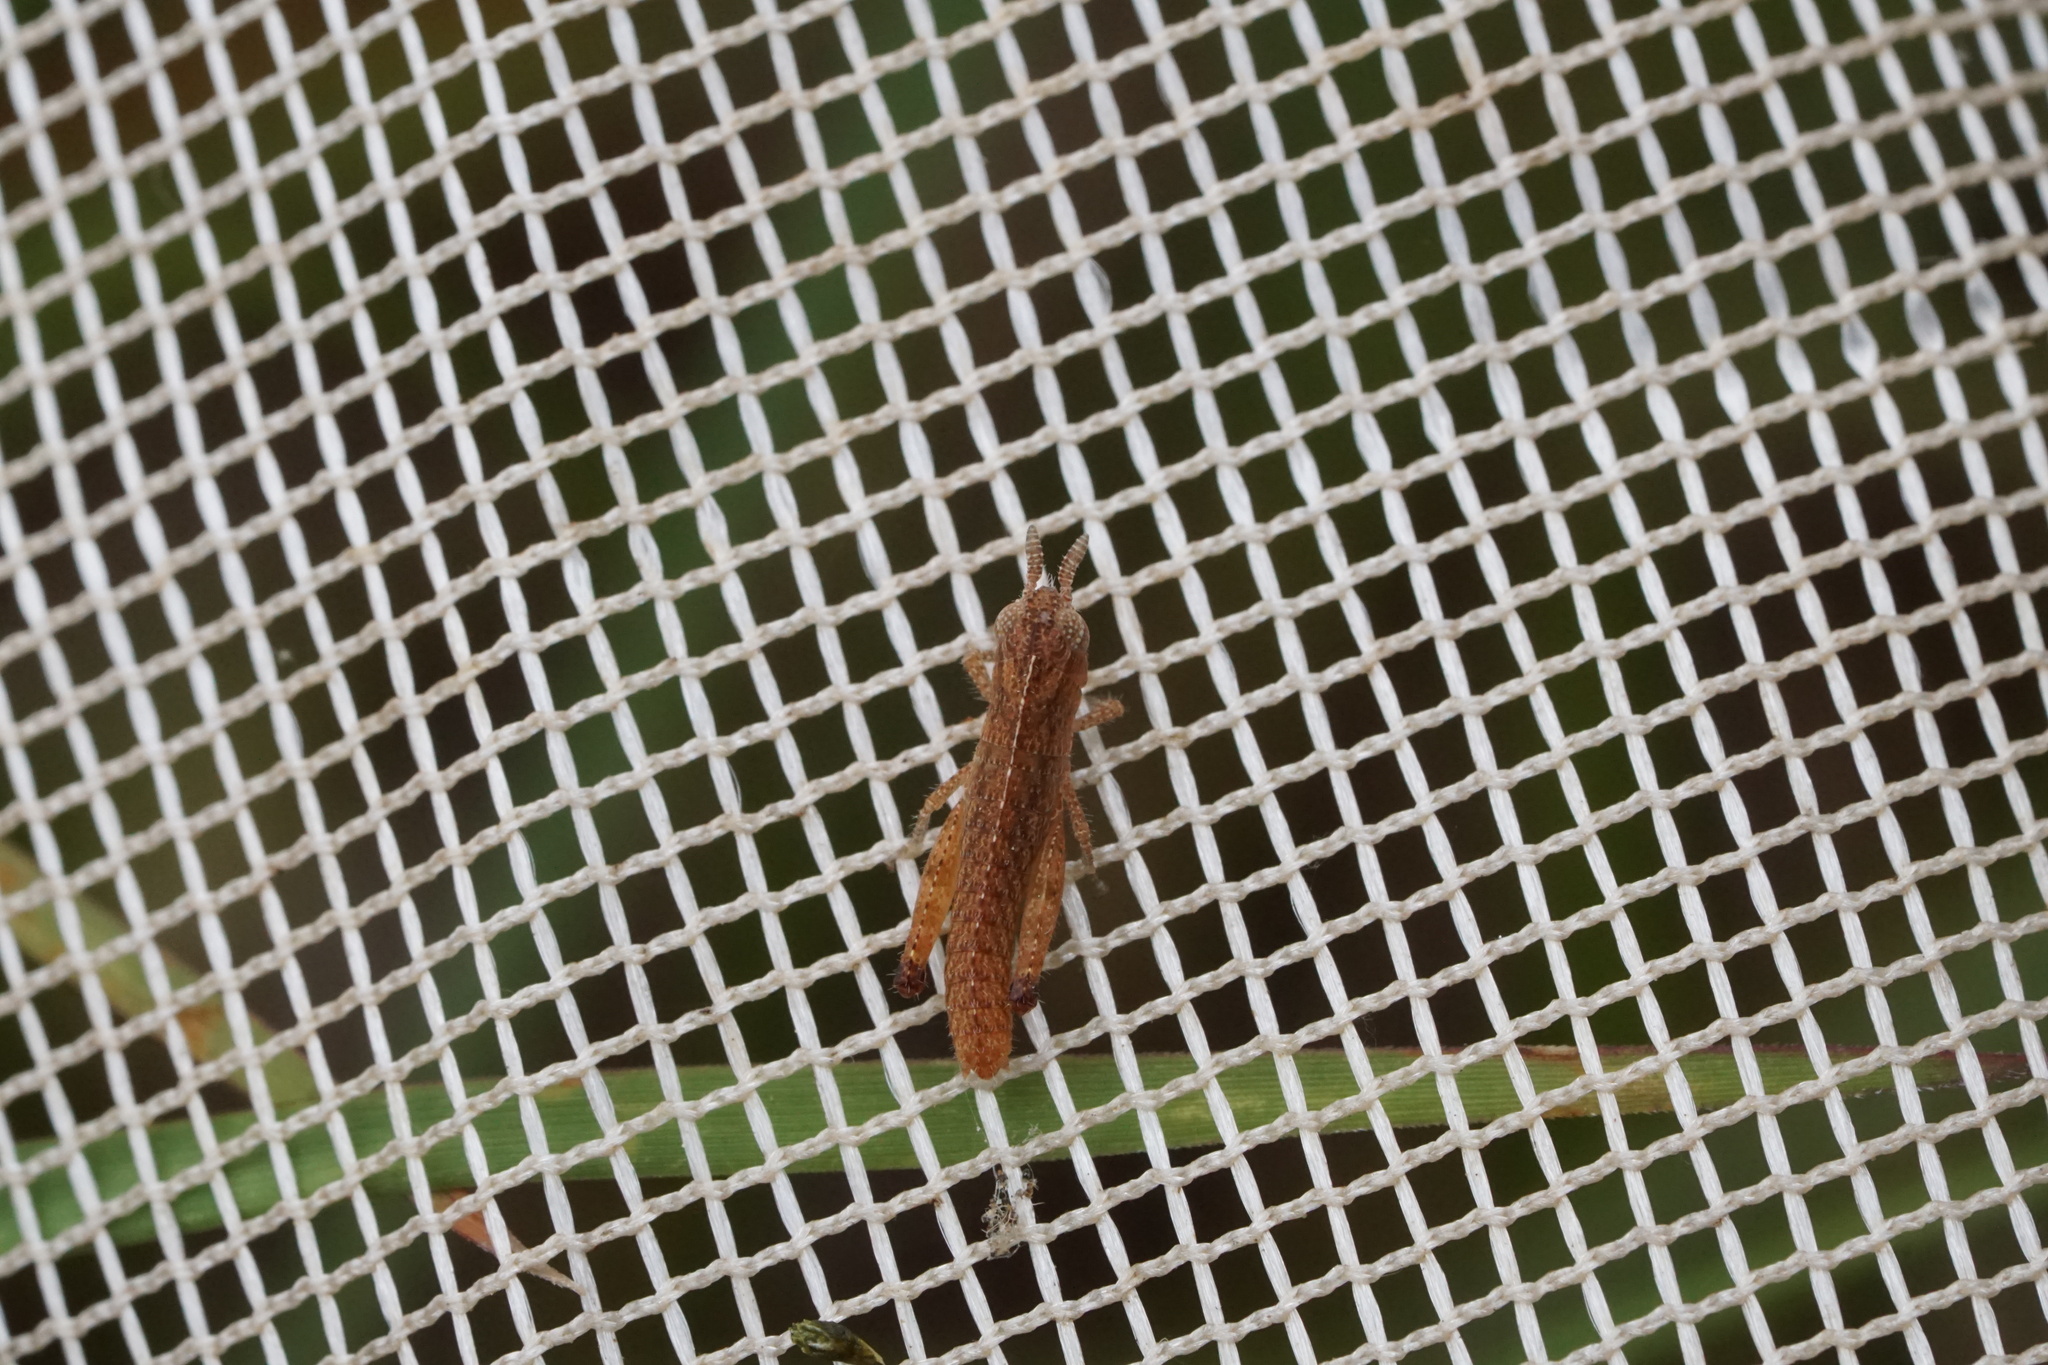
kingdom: Animalia
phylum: Arthropoda
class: Insecta
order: Orthoptera
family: Acrididae
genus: Chortophaga
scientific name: Chortophaga viridifasciata
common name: Green-striped grasshopper
